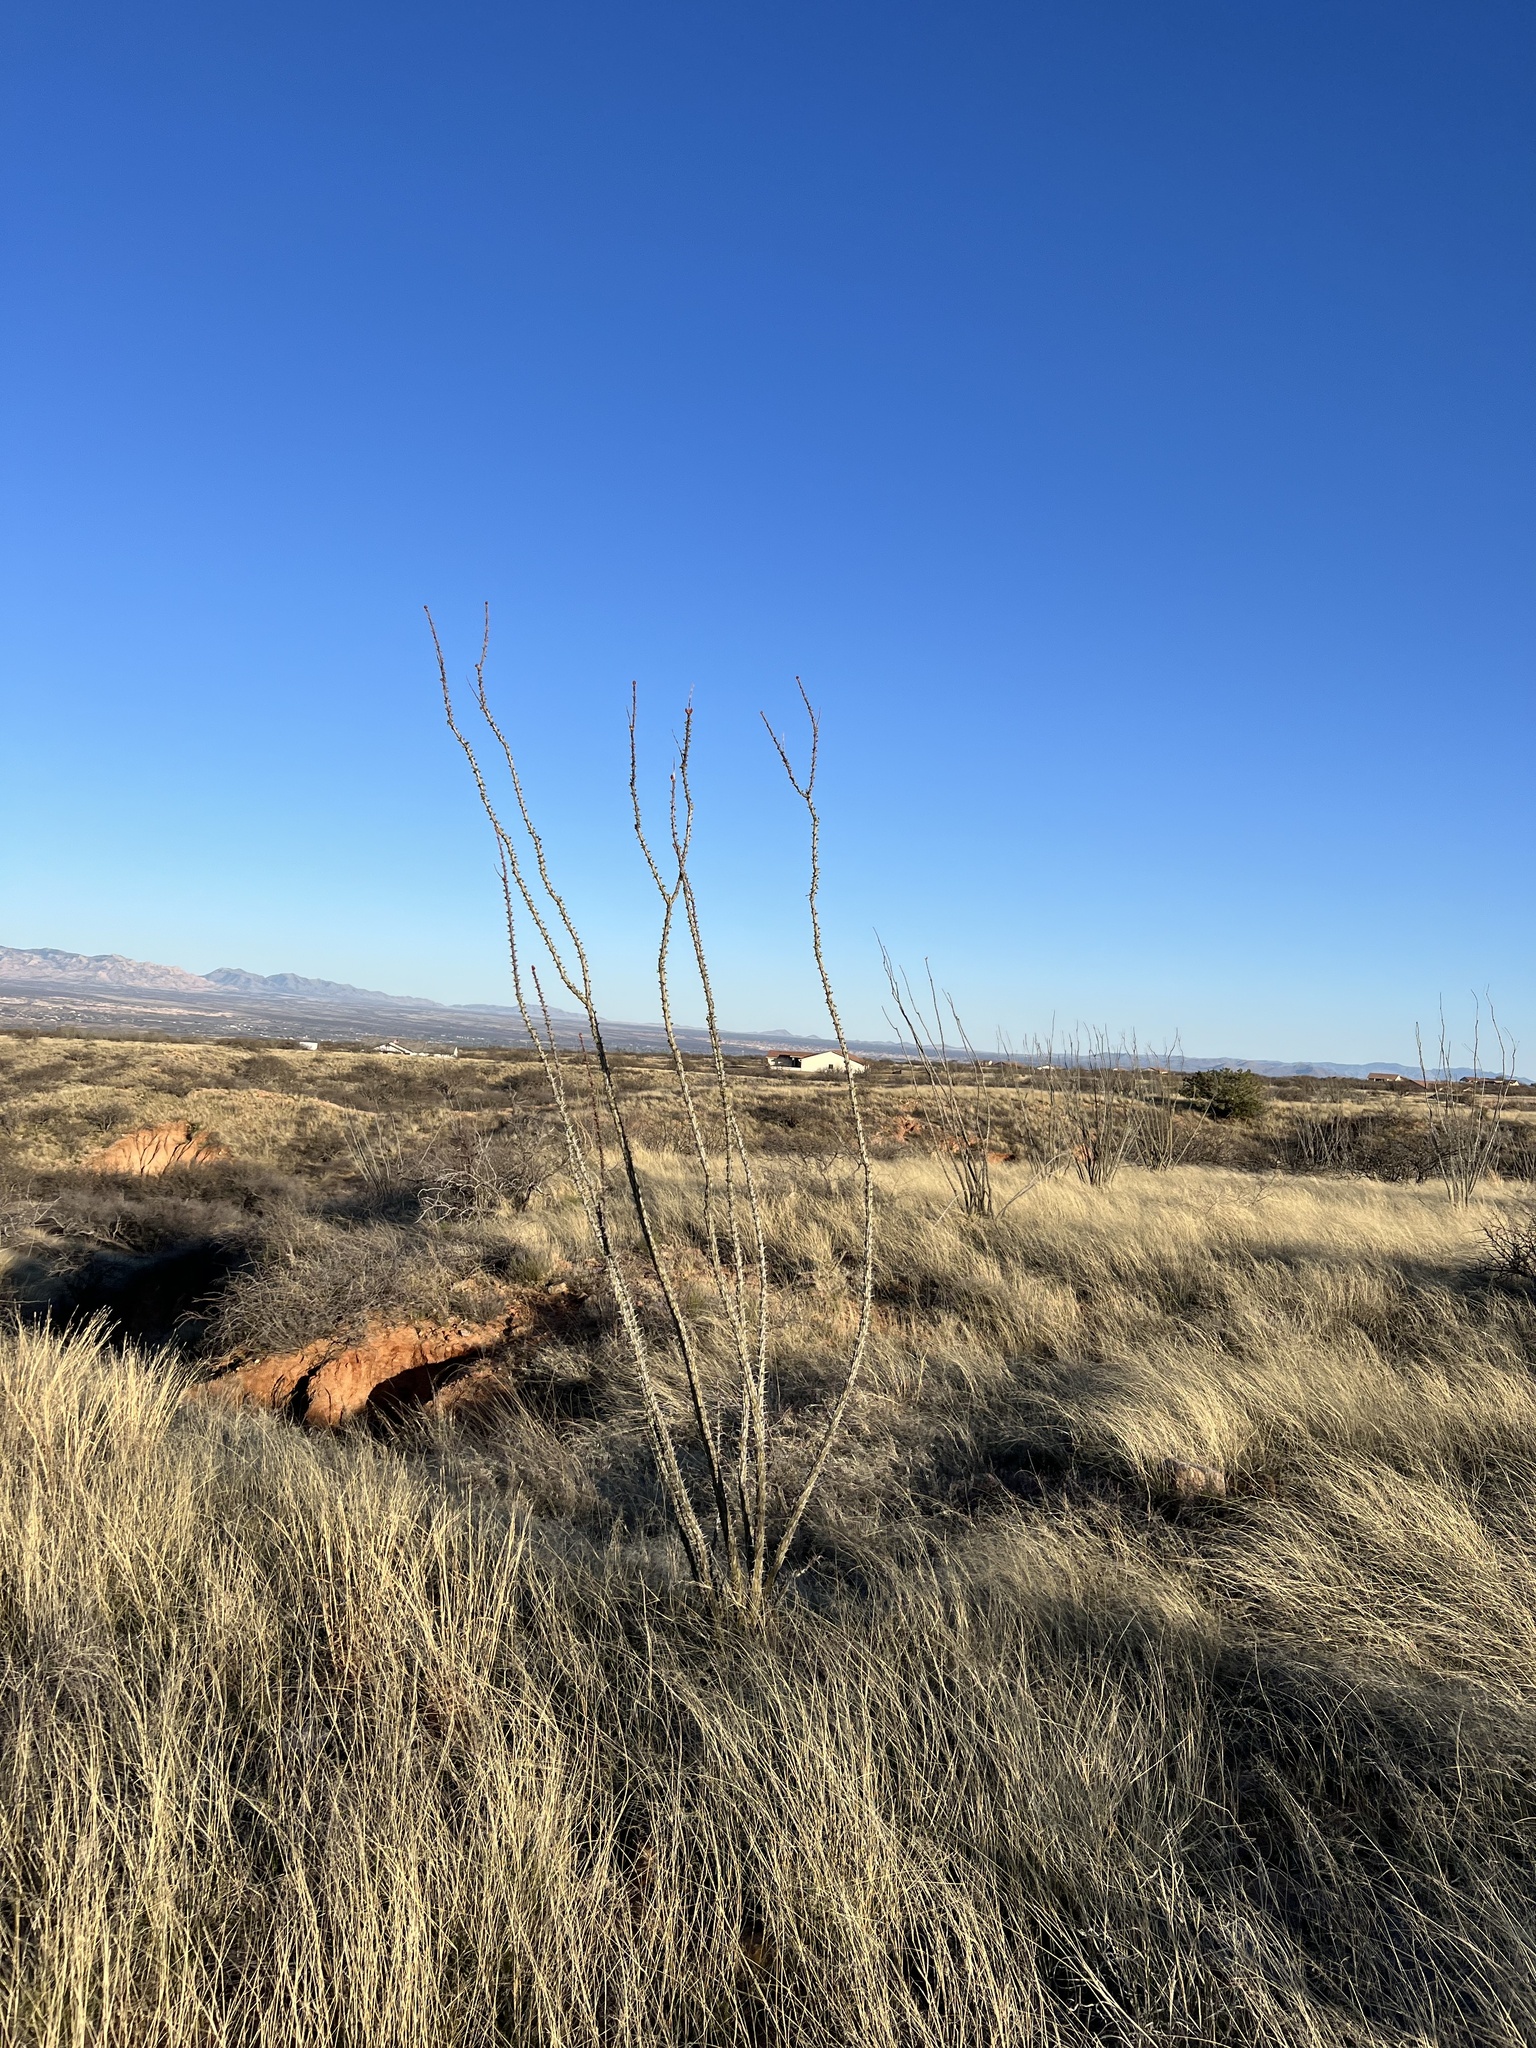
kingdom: Plantae
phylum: Tracheophyta
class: Magnoliopsida
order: Ericales
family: Fouquieriaceae
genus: Fouquieria
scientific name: Fouquieria splendens
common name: Vine-cactus
